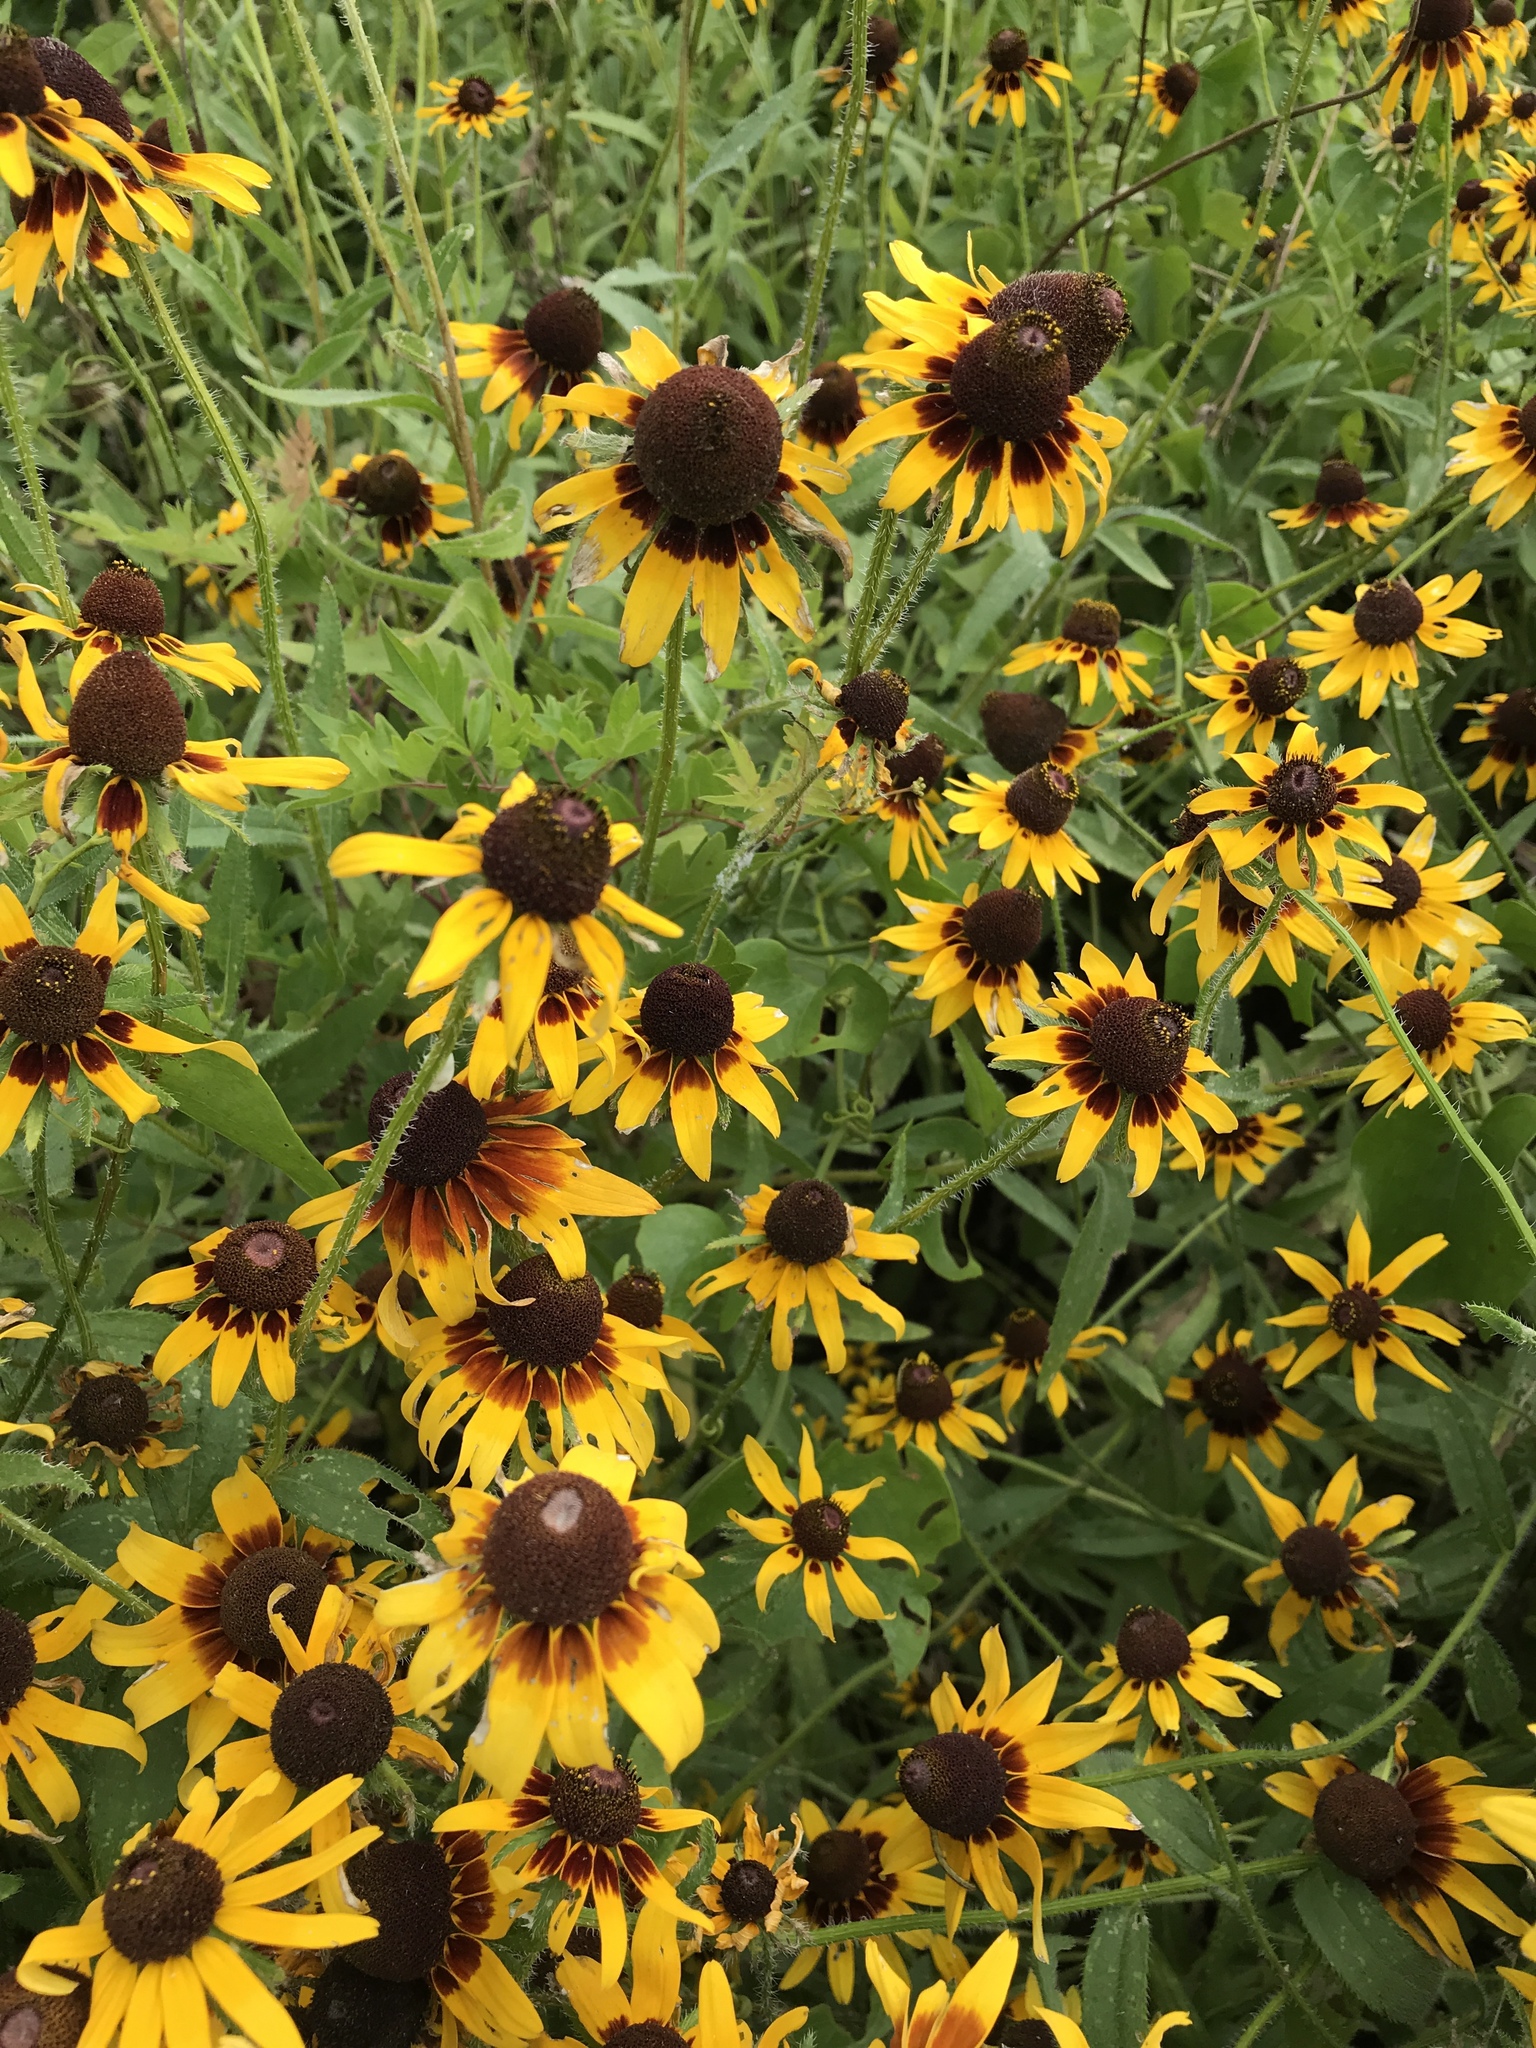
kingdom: Plantae
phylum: Tracheophyta
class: Magnoliopsida
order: Asterales
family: Asteraceae
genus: Rudbeckia
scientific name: Rudbeckia hirta
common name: Black-eyed-susan
